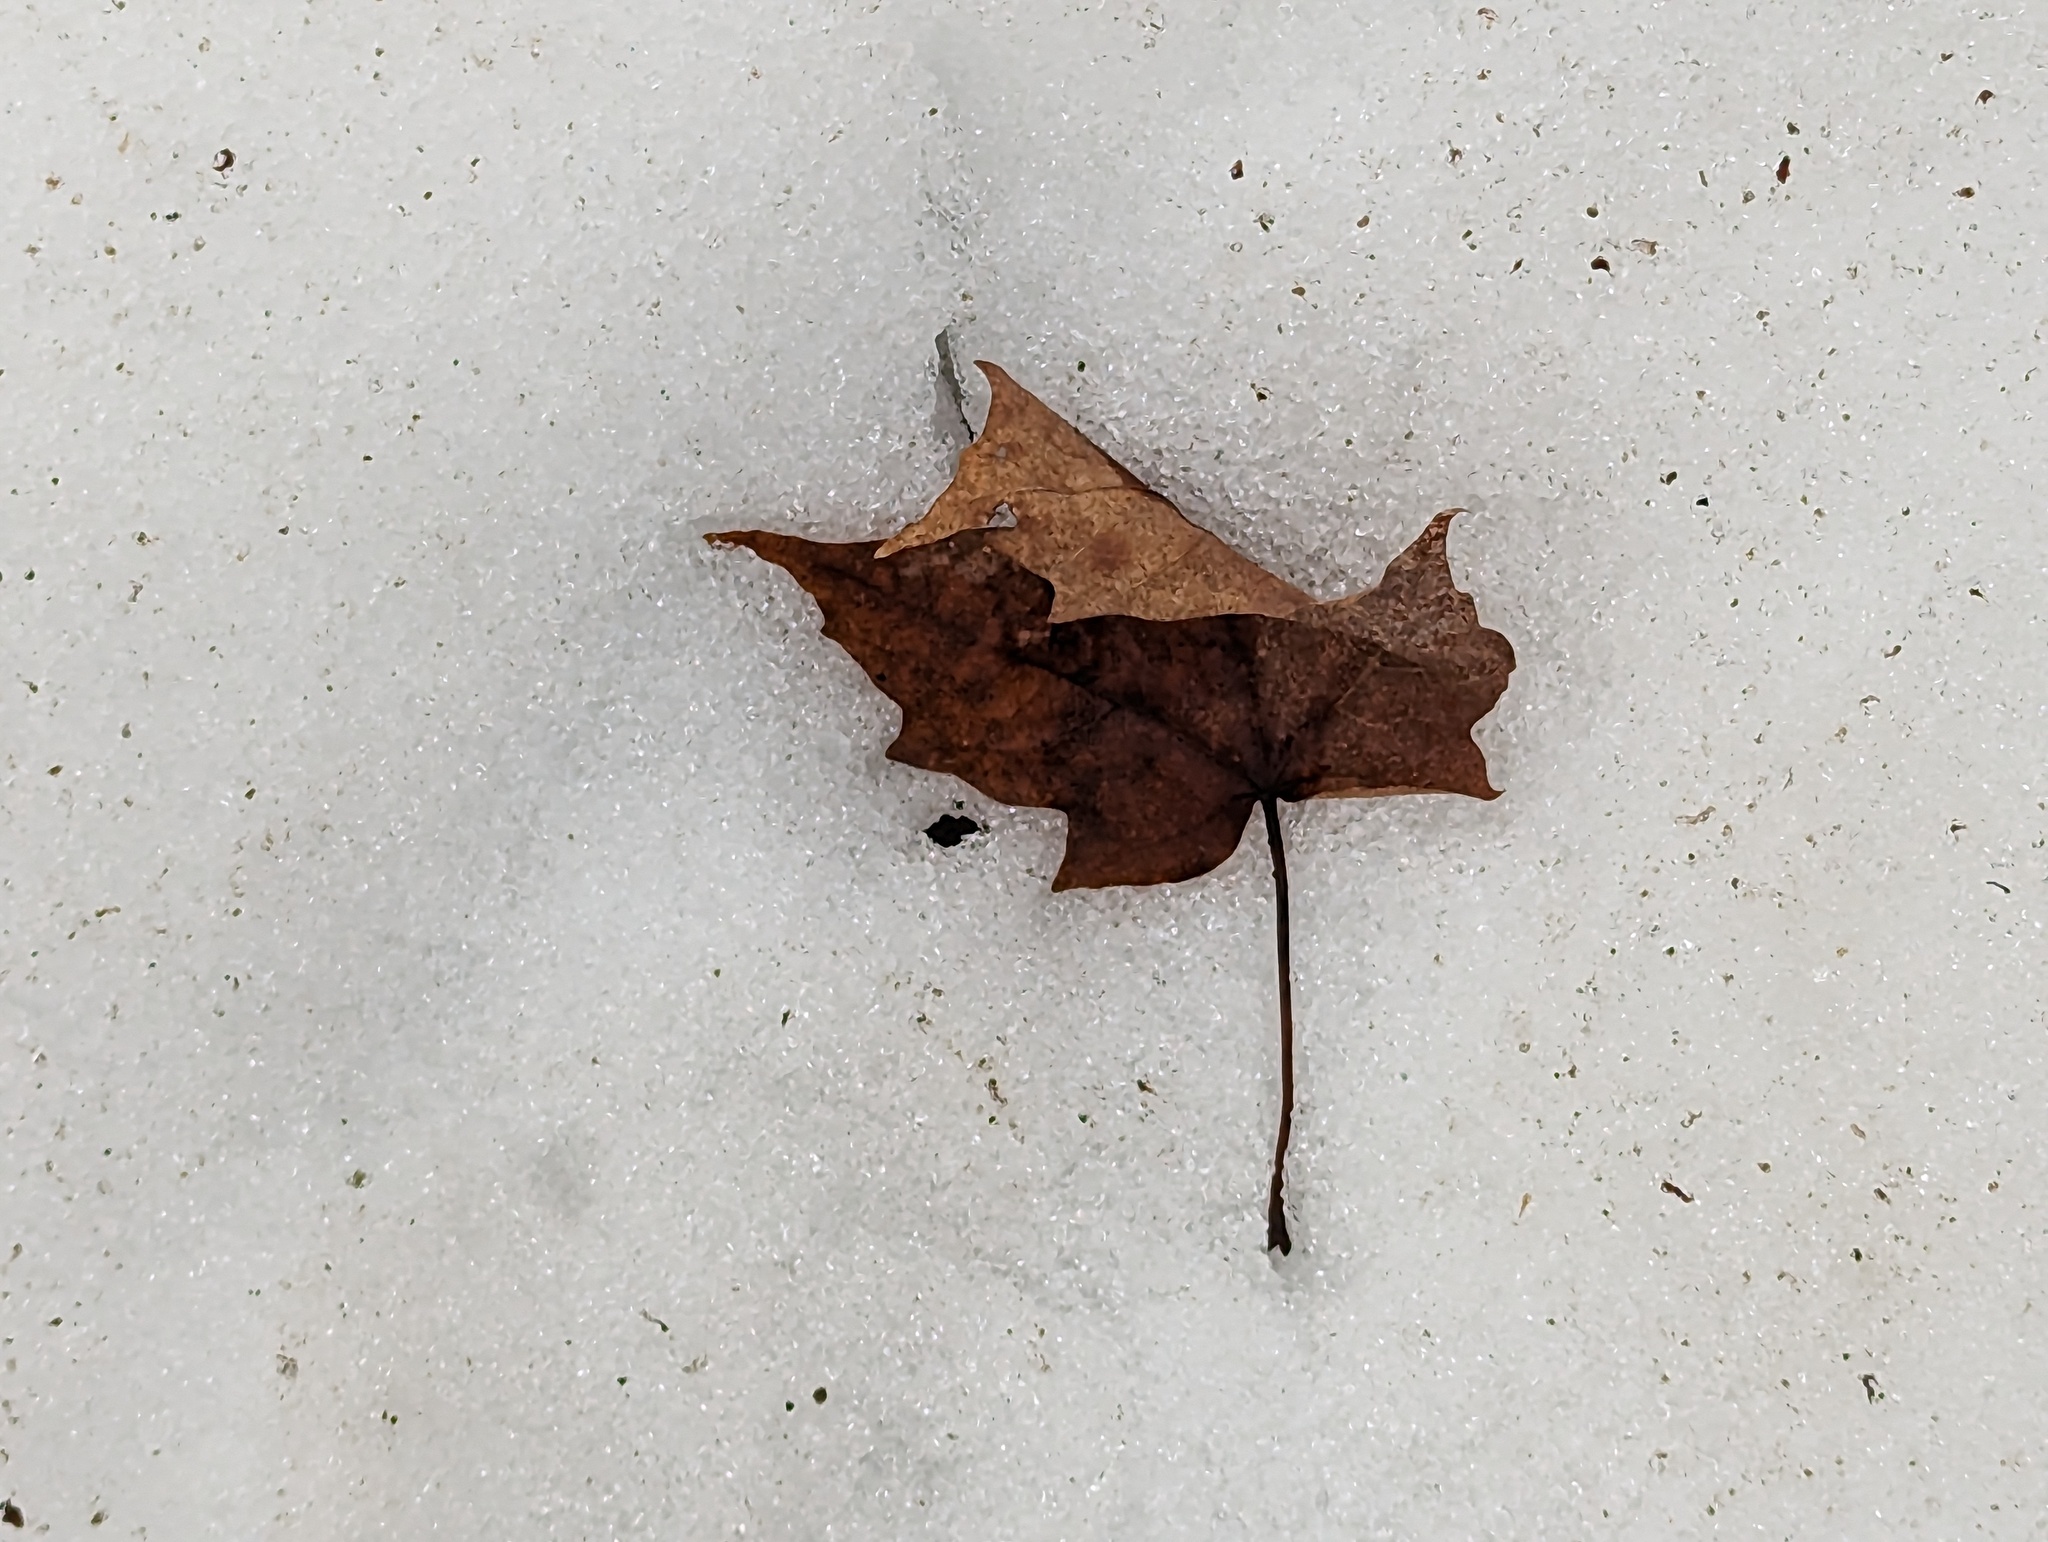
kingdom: Plantae
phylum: Tracheophyta
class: Magnoliopsida
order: Sapindales
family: Sapindaceae
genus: Acer
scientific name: Acer saccharum
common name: Sugar maple
